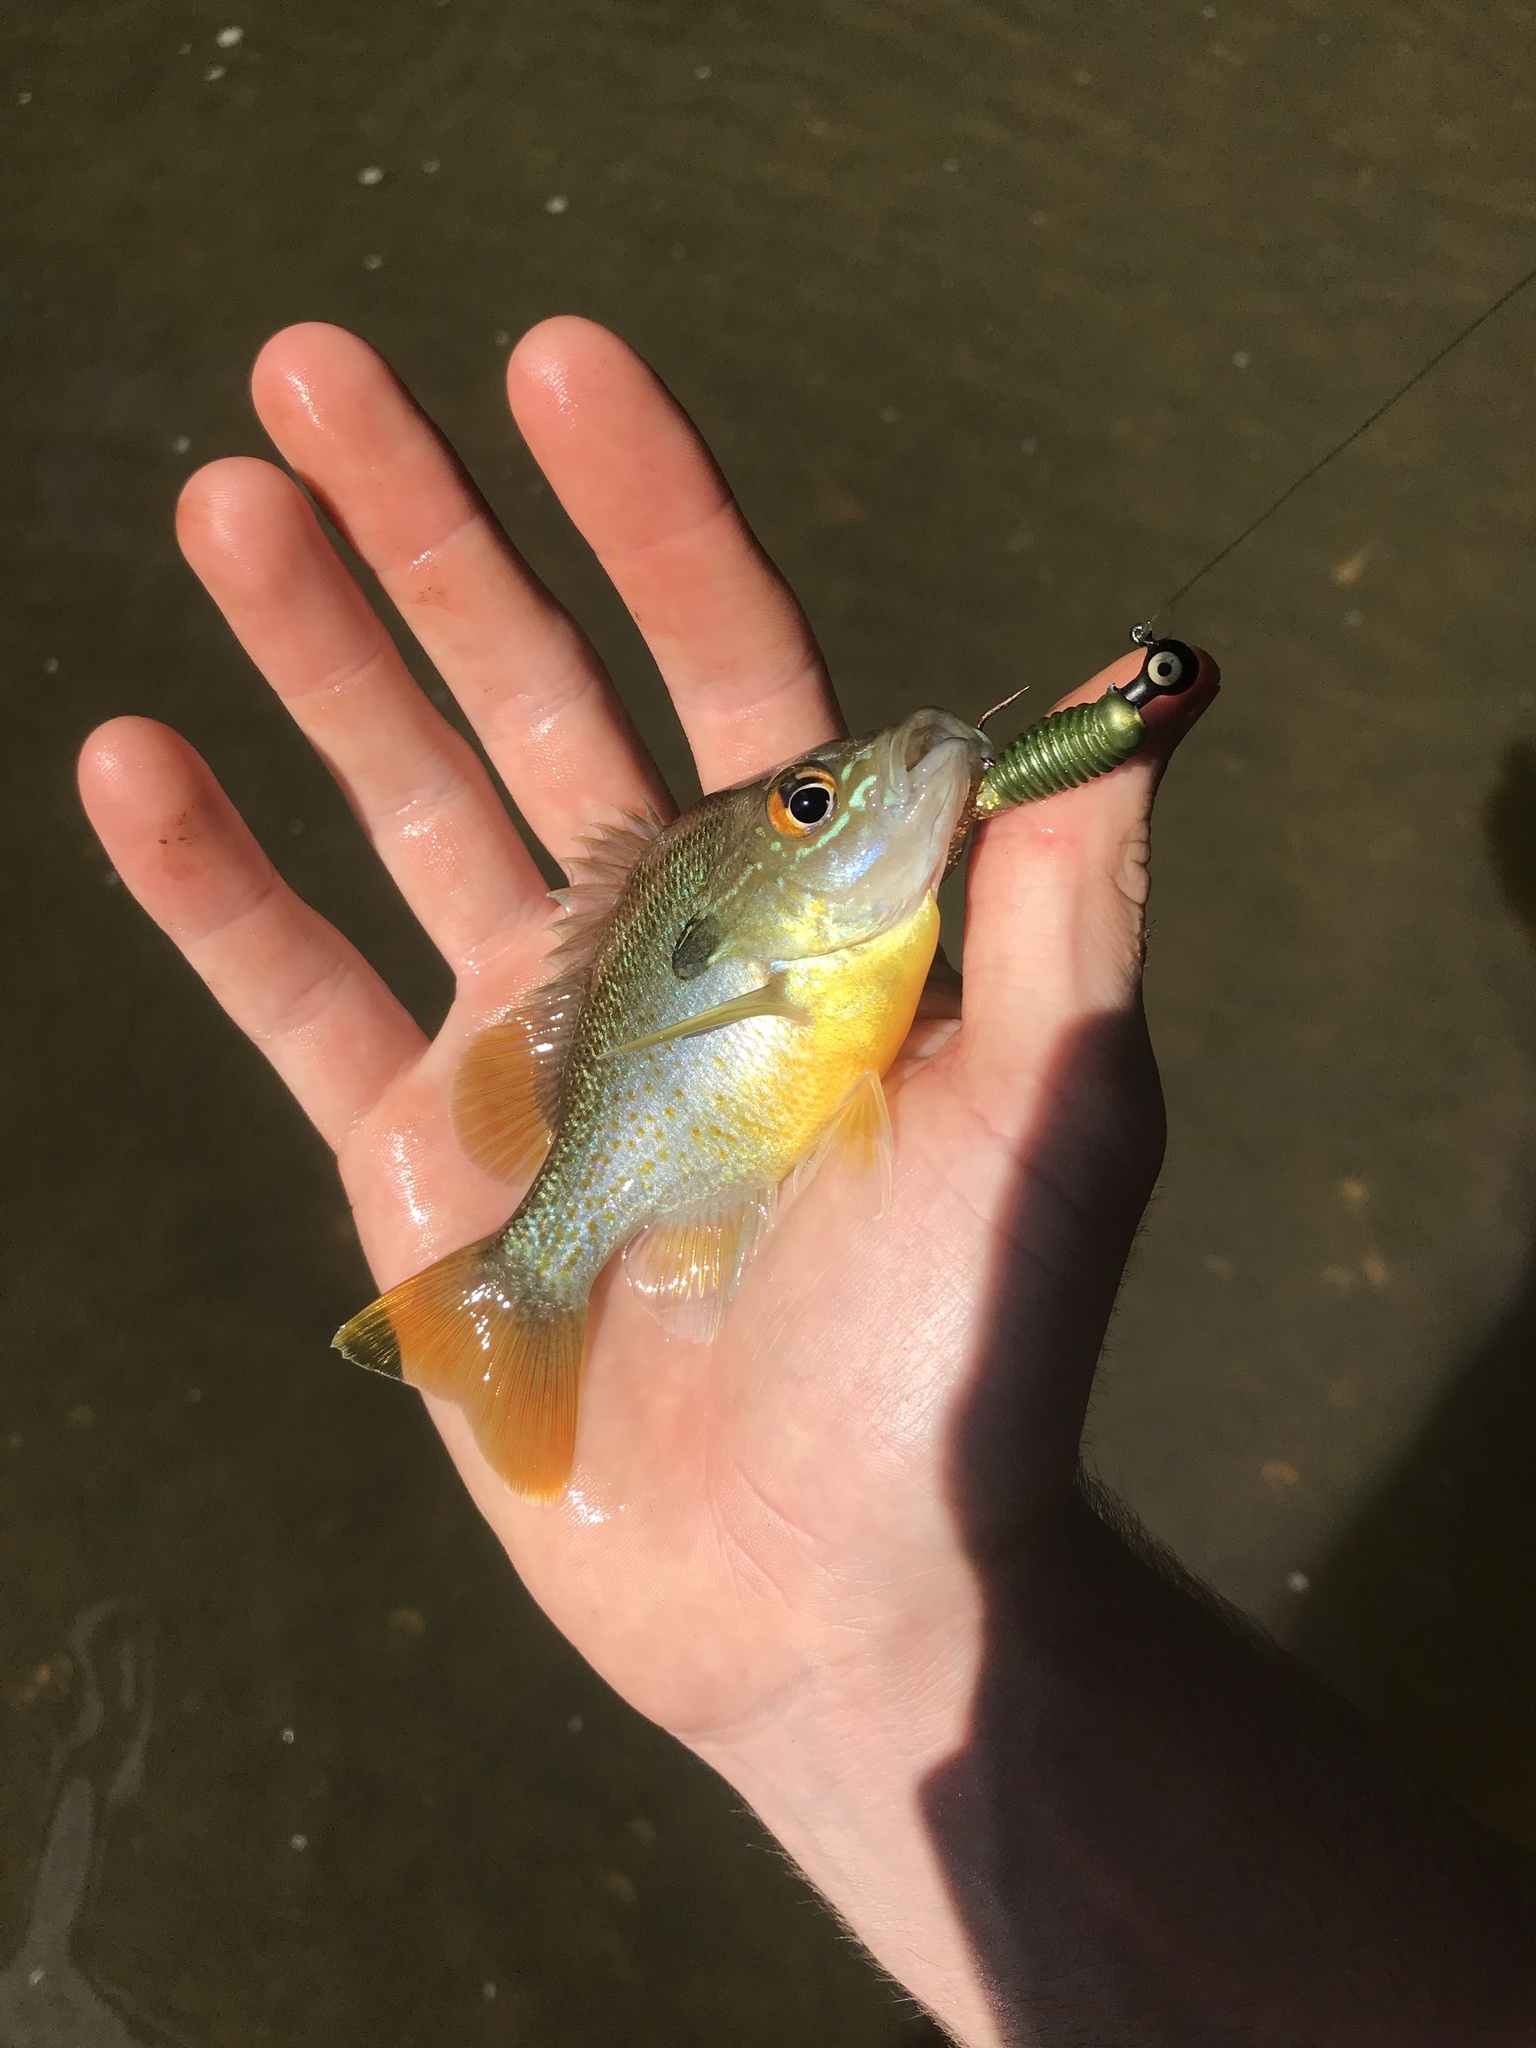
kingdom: Animalia
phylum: Chordata
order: Perciformes
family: Centrarchidae
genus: Lepomis
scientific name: Lepomis auritus
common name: Redbreast sunfish
